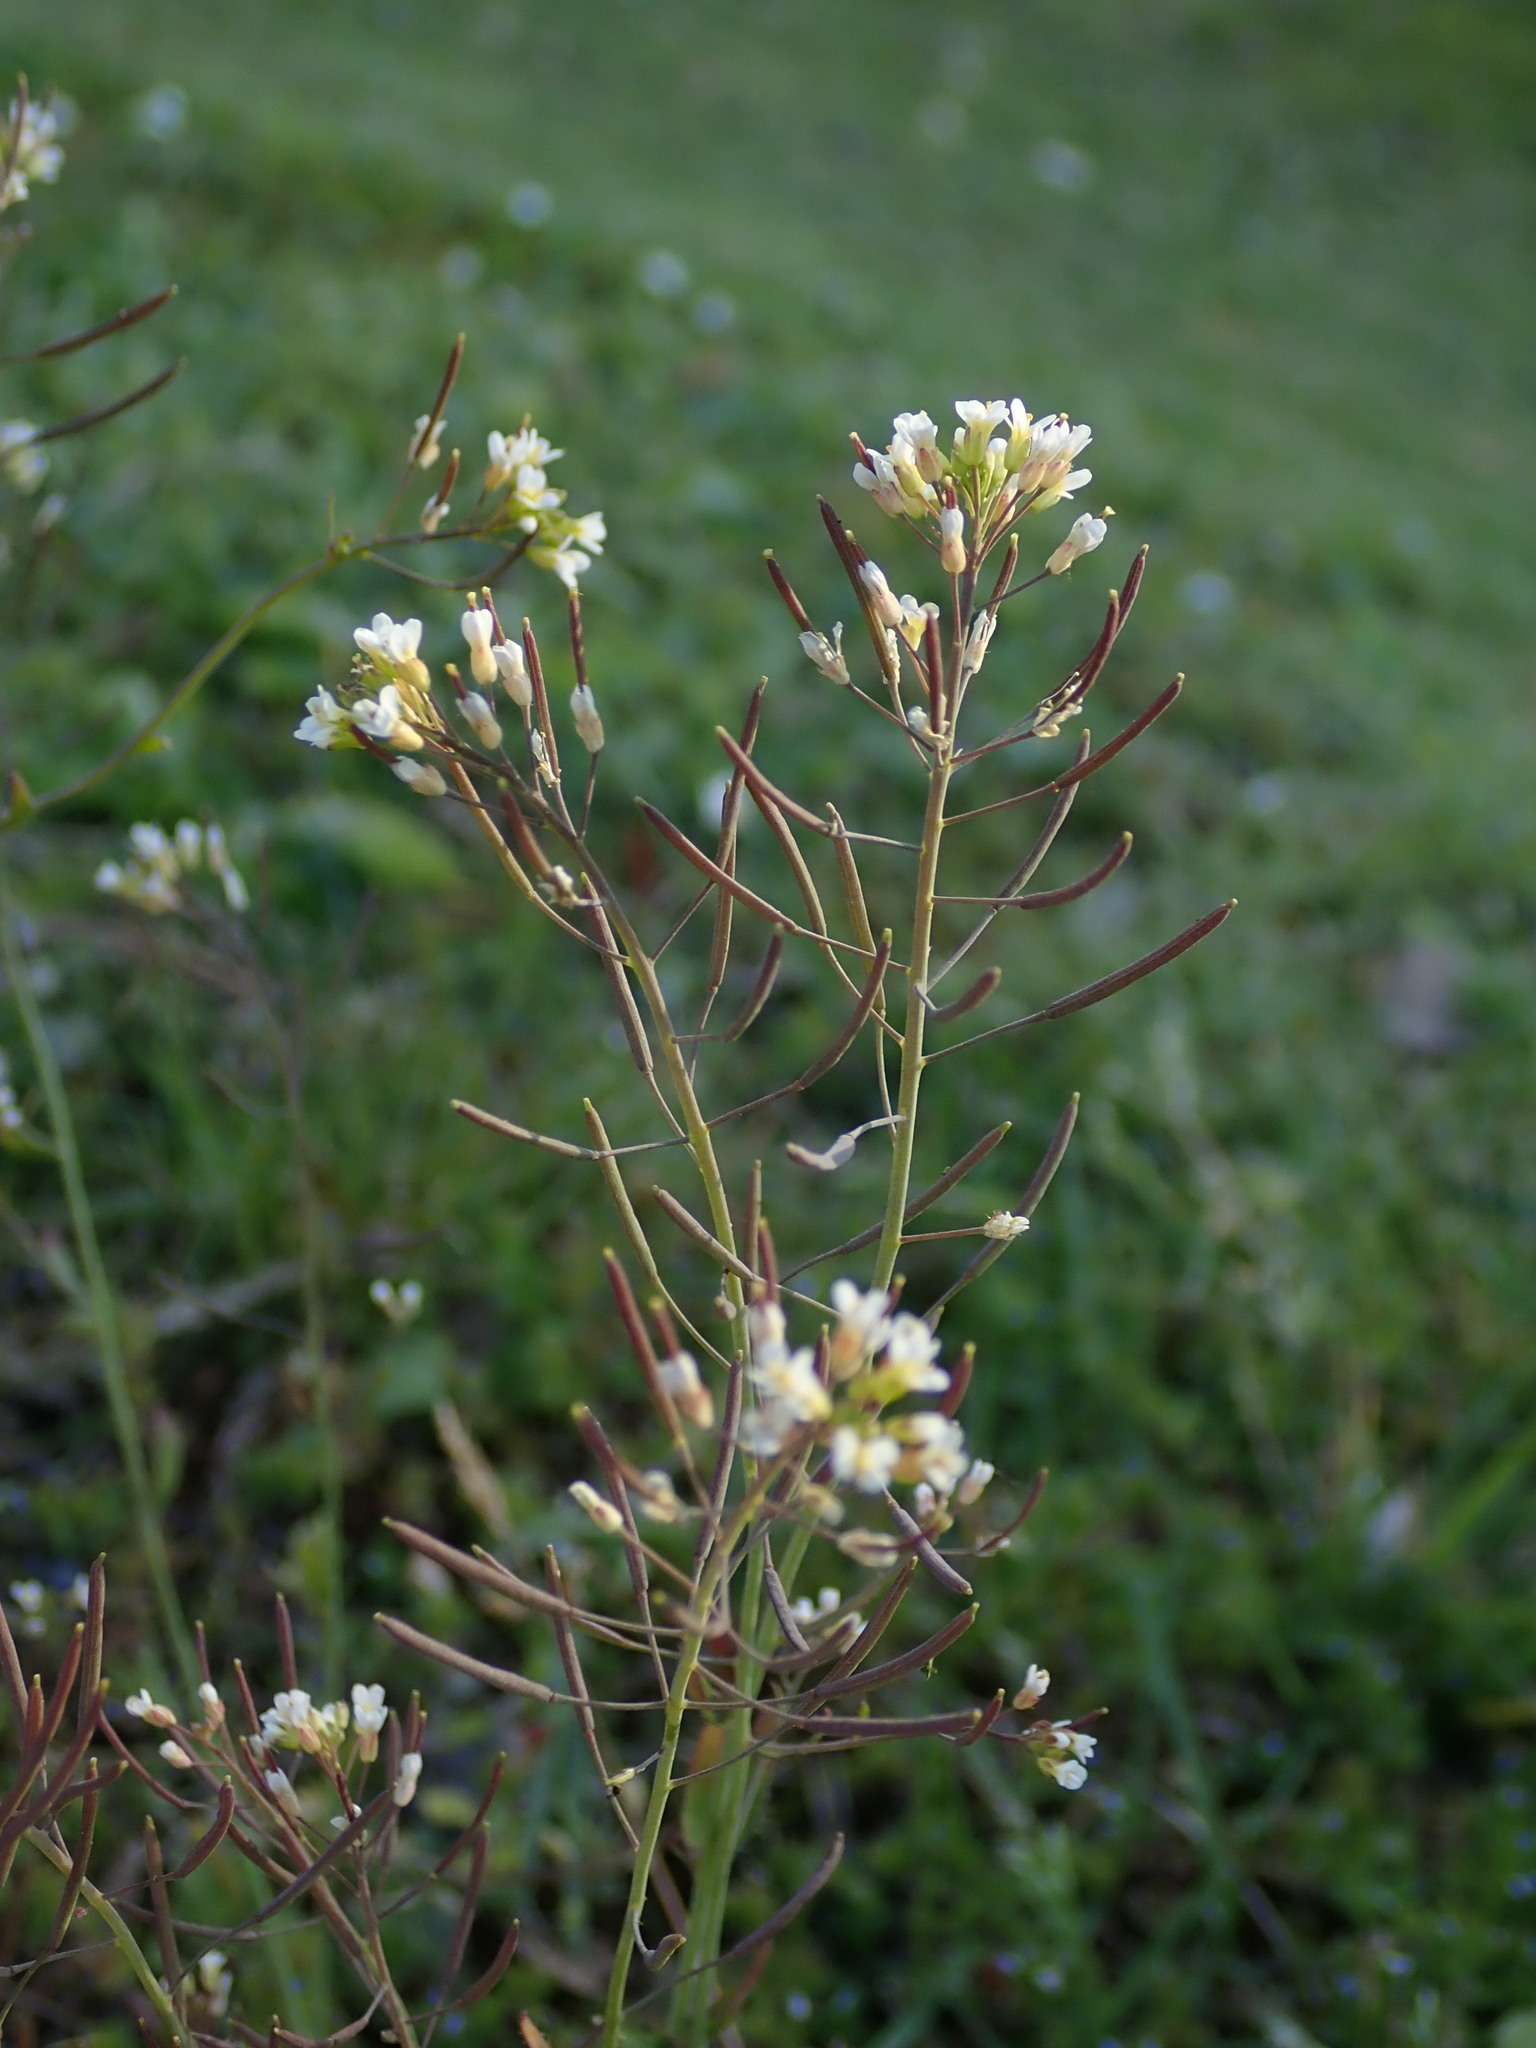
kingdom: Plantae
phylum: Tracheophyta
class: Magnoliopsida
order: Brassicales
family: Brassicaceae
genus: Arabidopsis
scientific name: Arabidopsis thaliana
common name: Thale cress
